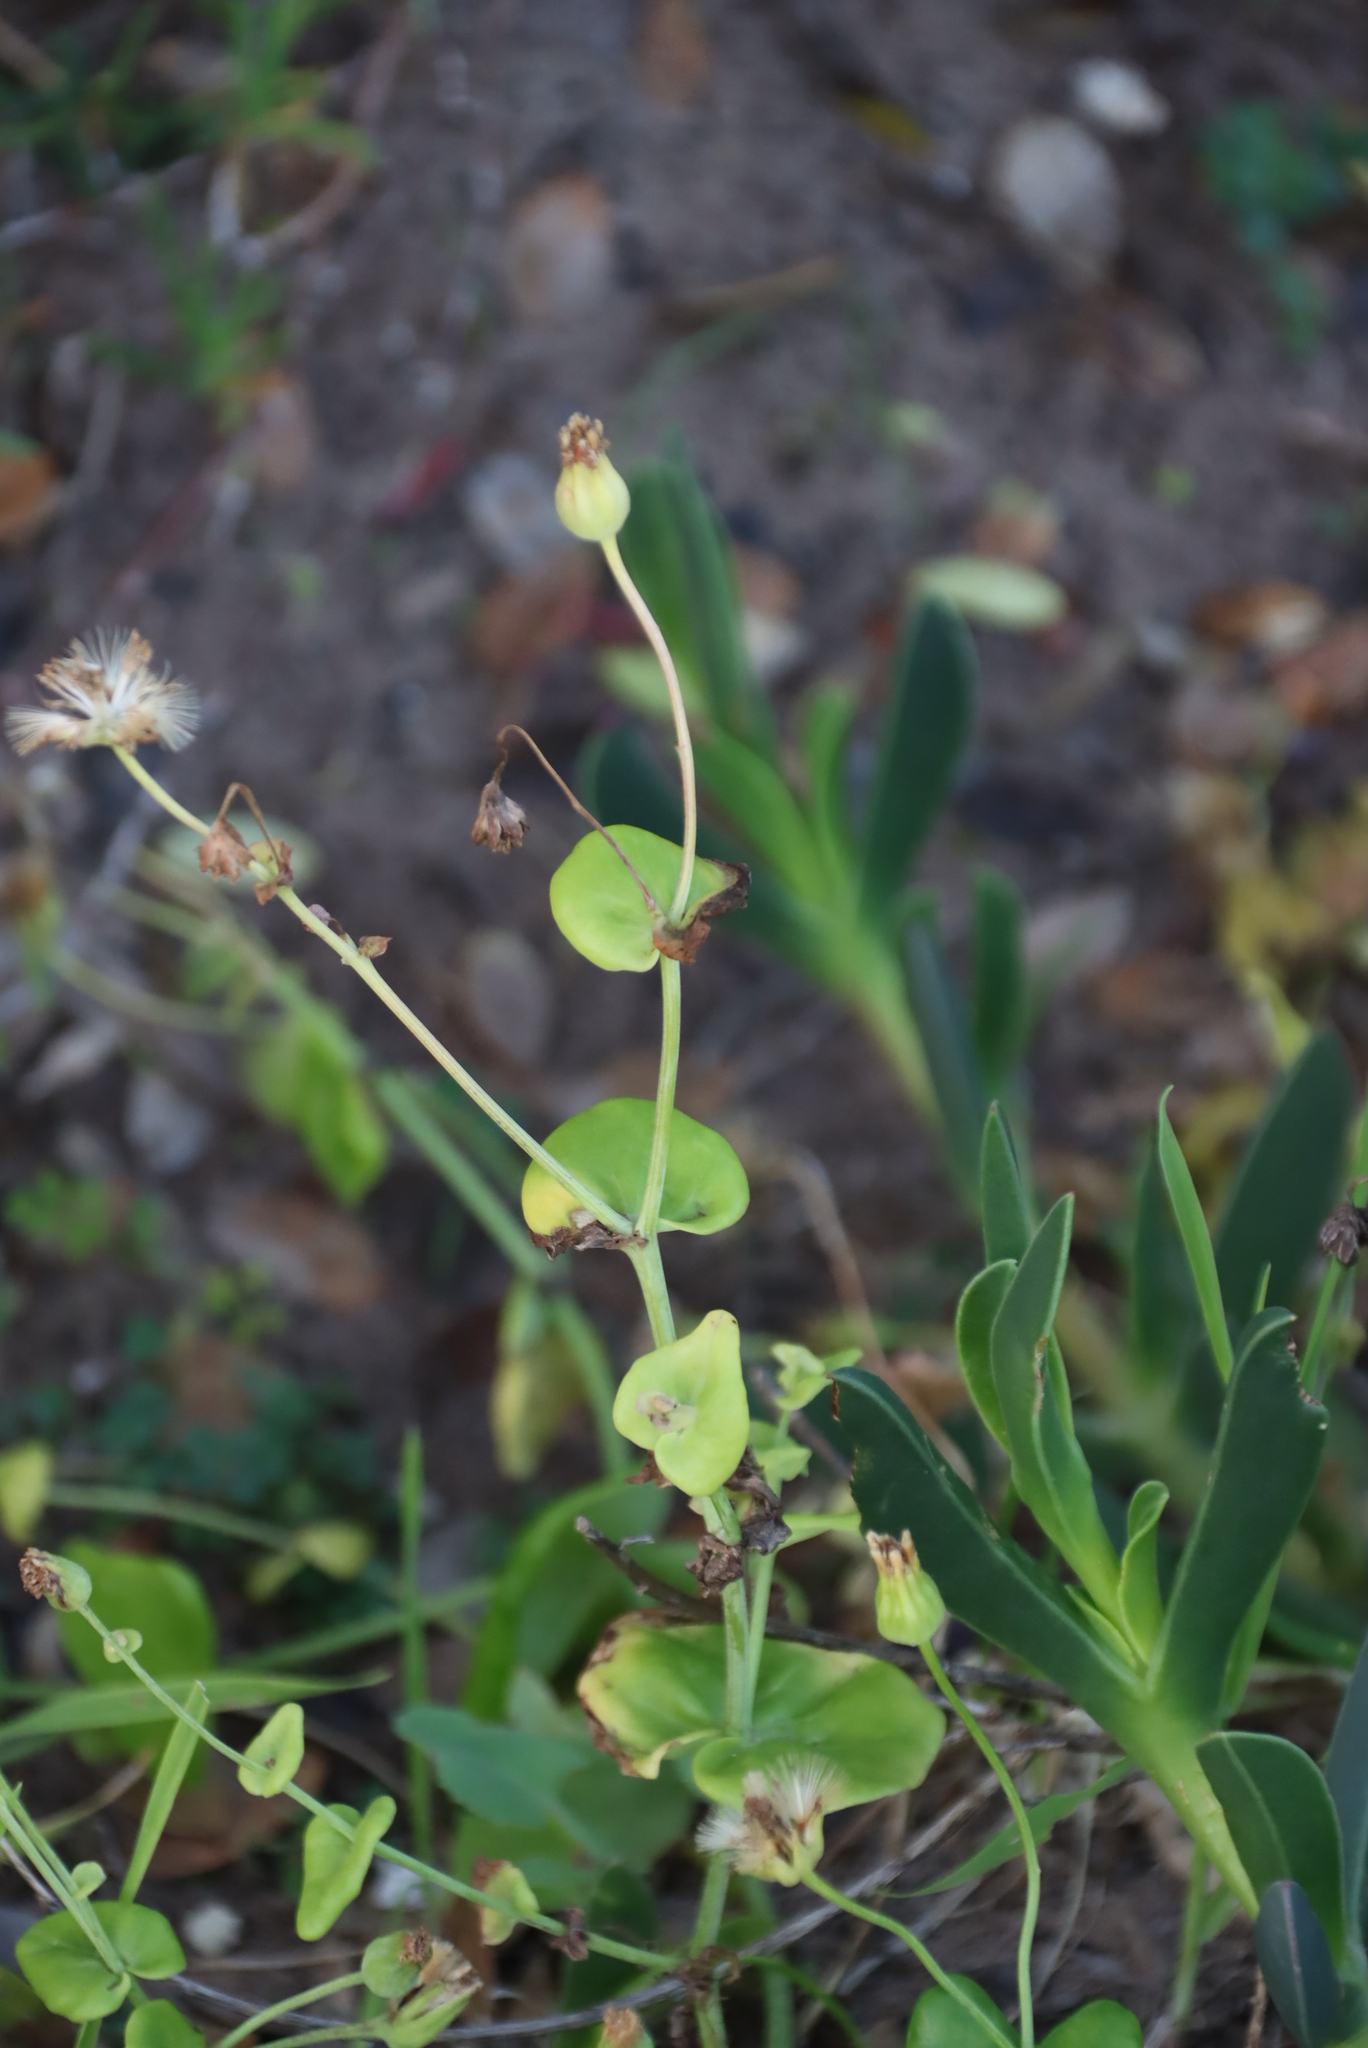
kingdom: Plantae
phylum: Tracheophyta
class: Magnoliopsida
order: Asterales
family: Asteraceae
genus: Othonna
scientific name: Othonna undulosa
